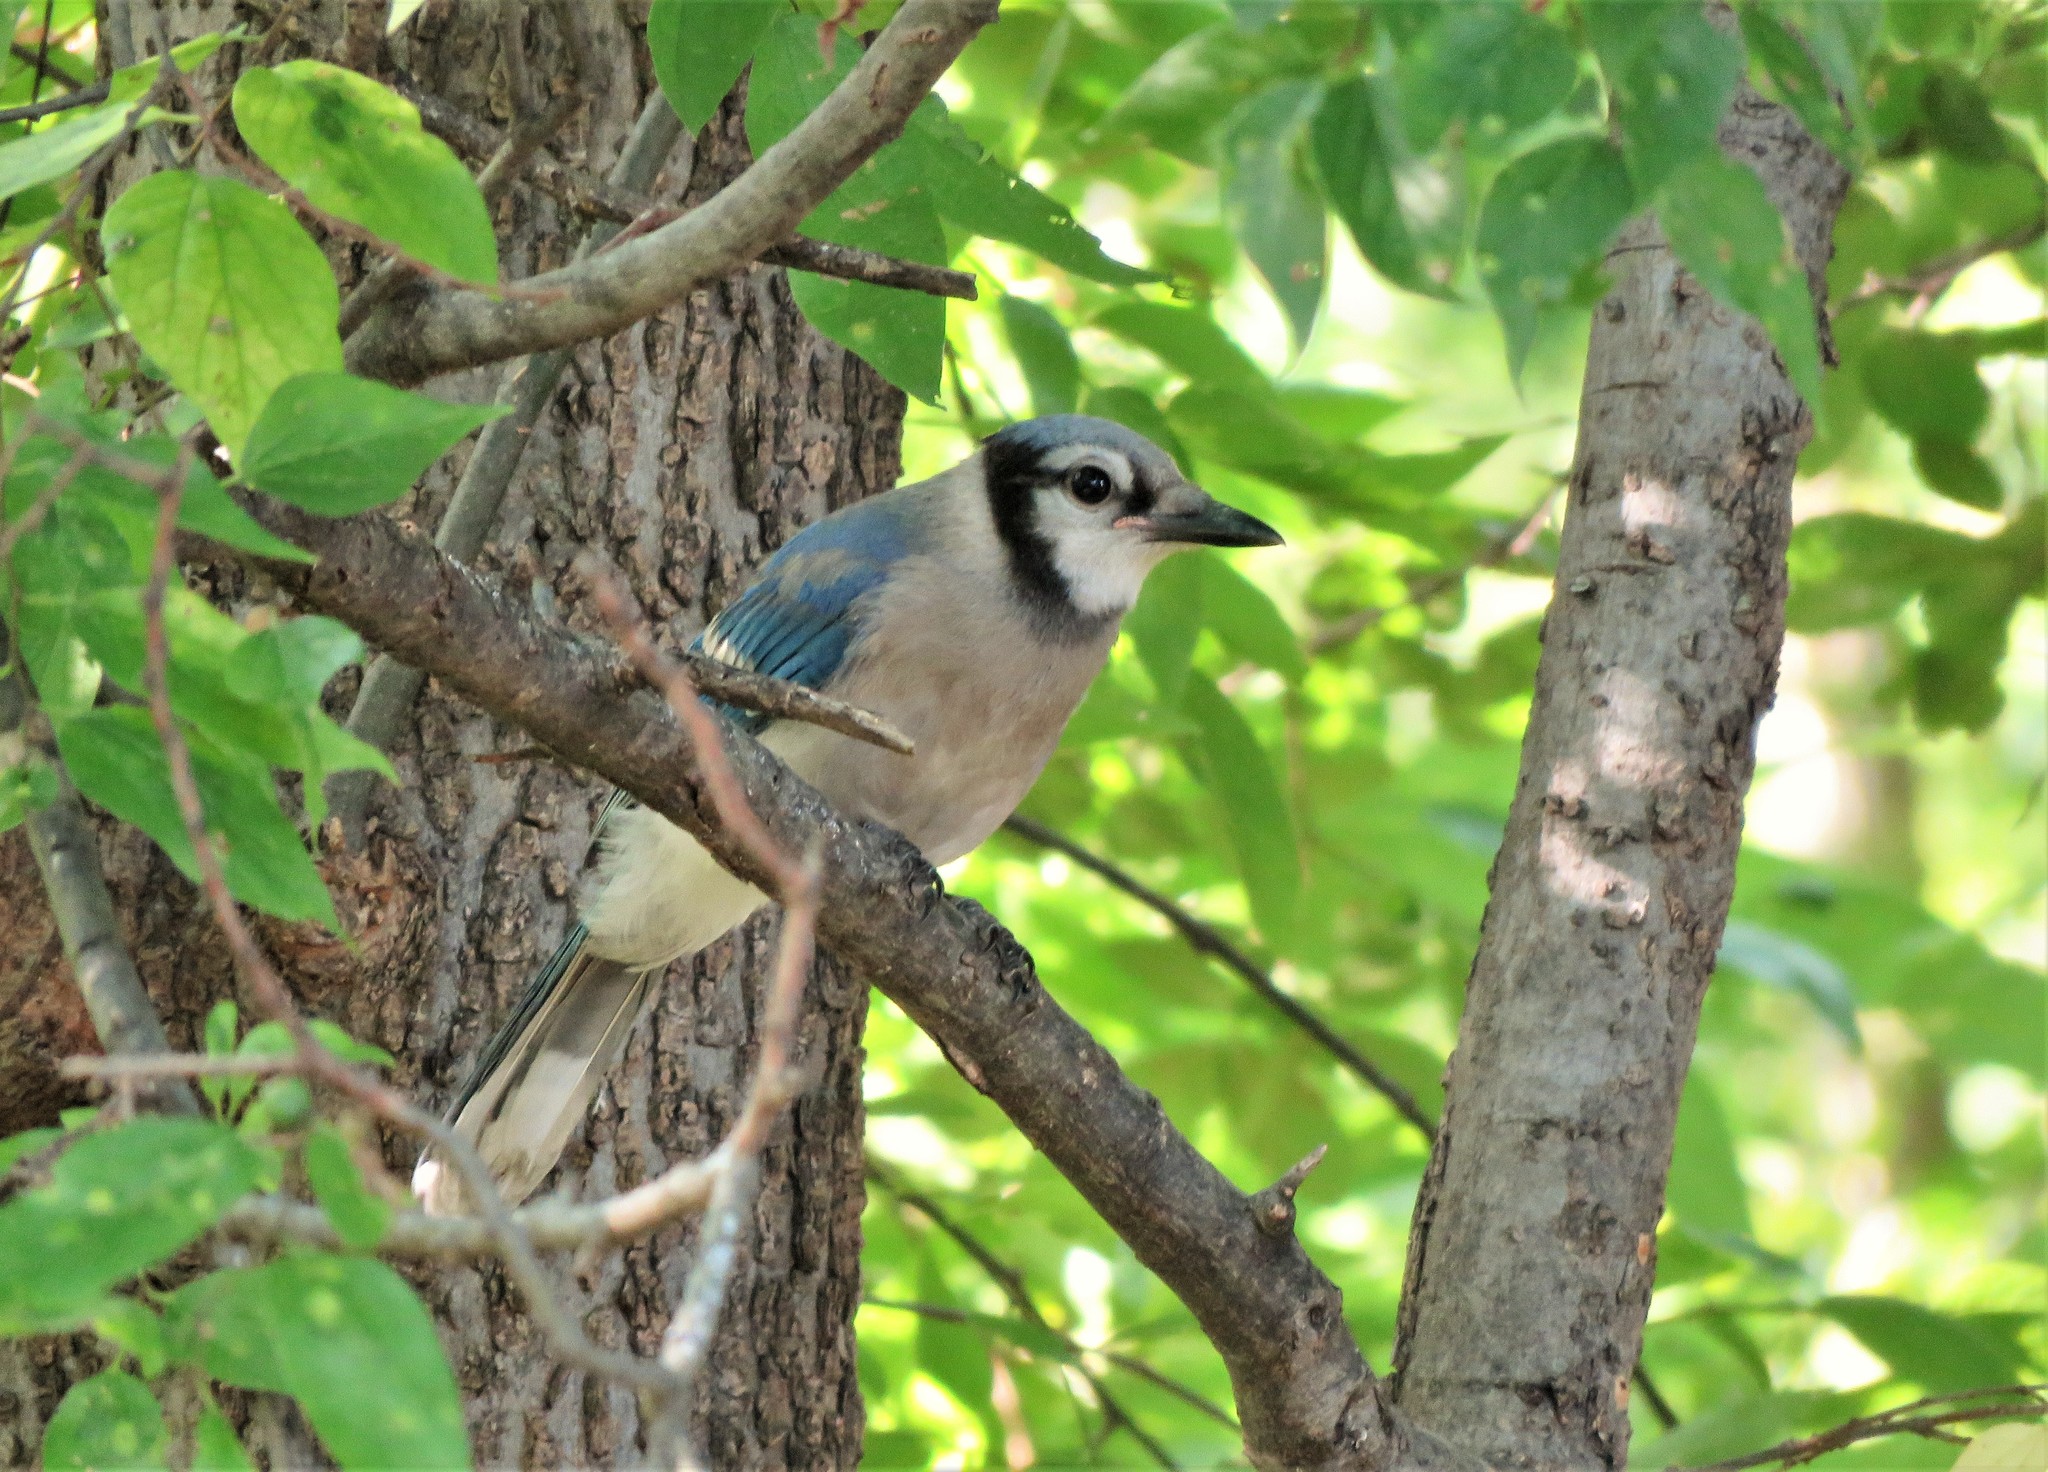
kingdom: Animalia
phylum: Chordata
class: Aves
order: Passeriformes
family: Corvidae
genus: Cyanocitta
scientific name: Cyanocitta cristata
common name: Blue jay
